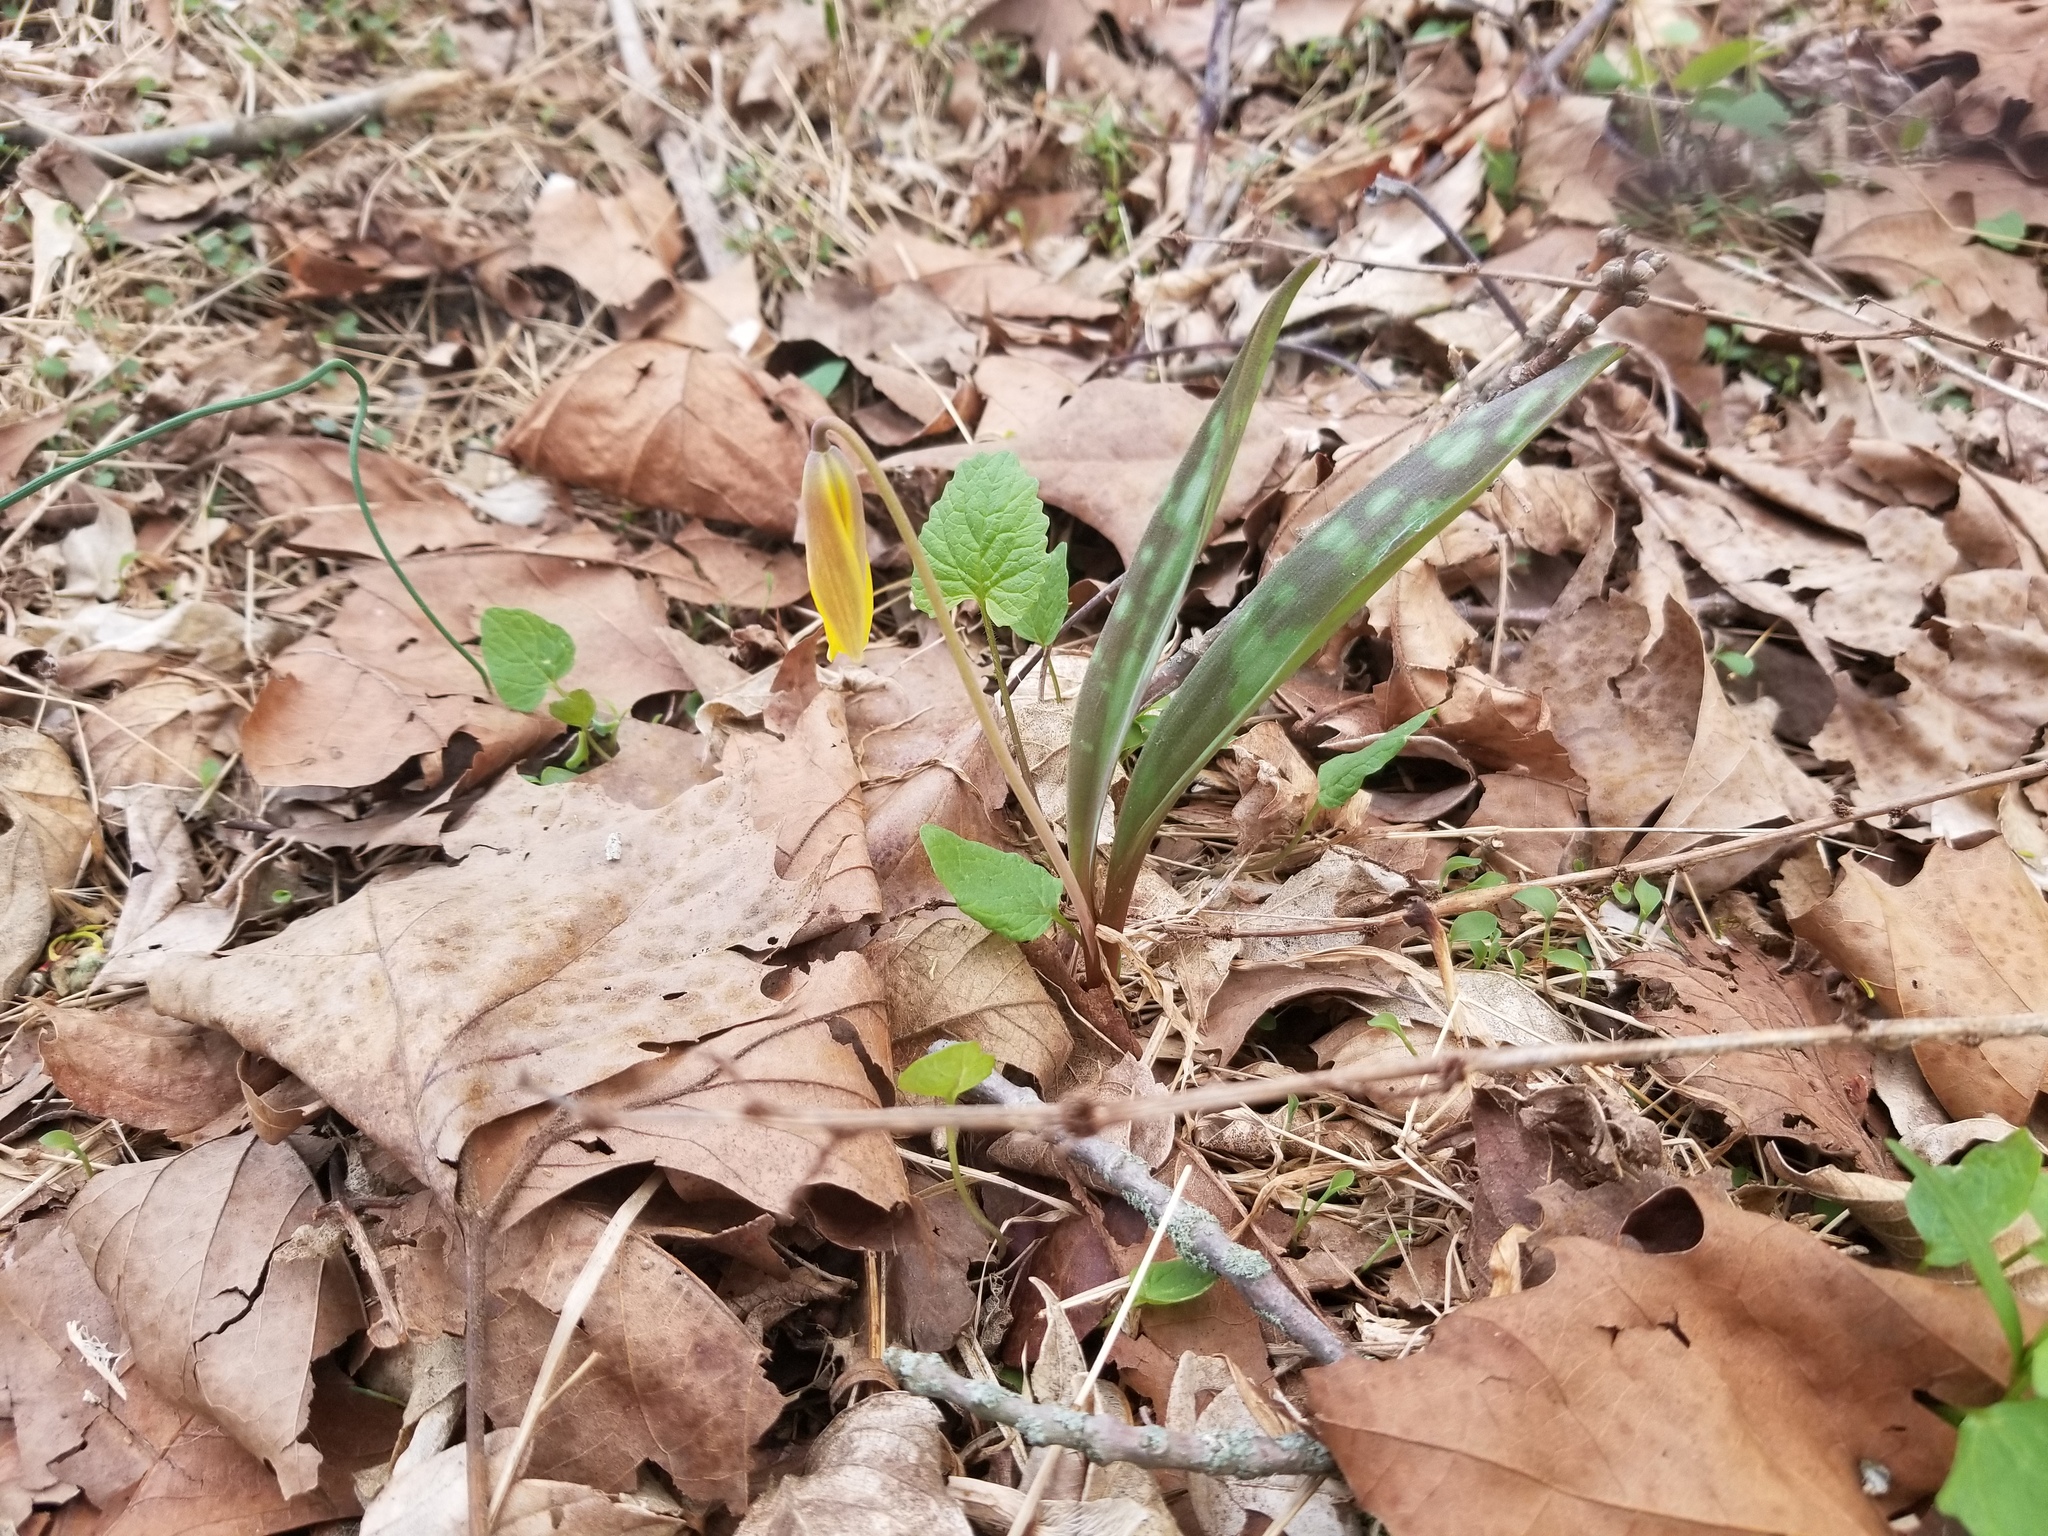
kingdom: Plantae
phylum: Tracheophyta
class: Liliopsida
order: Liliales
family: Liliaceae
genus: Erythronium
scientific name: Erythronium americanum
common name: Yellow adder's-tongue
